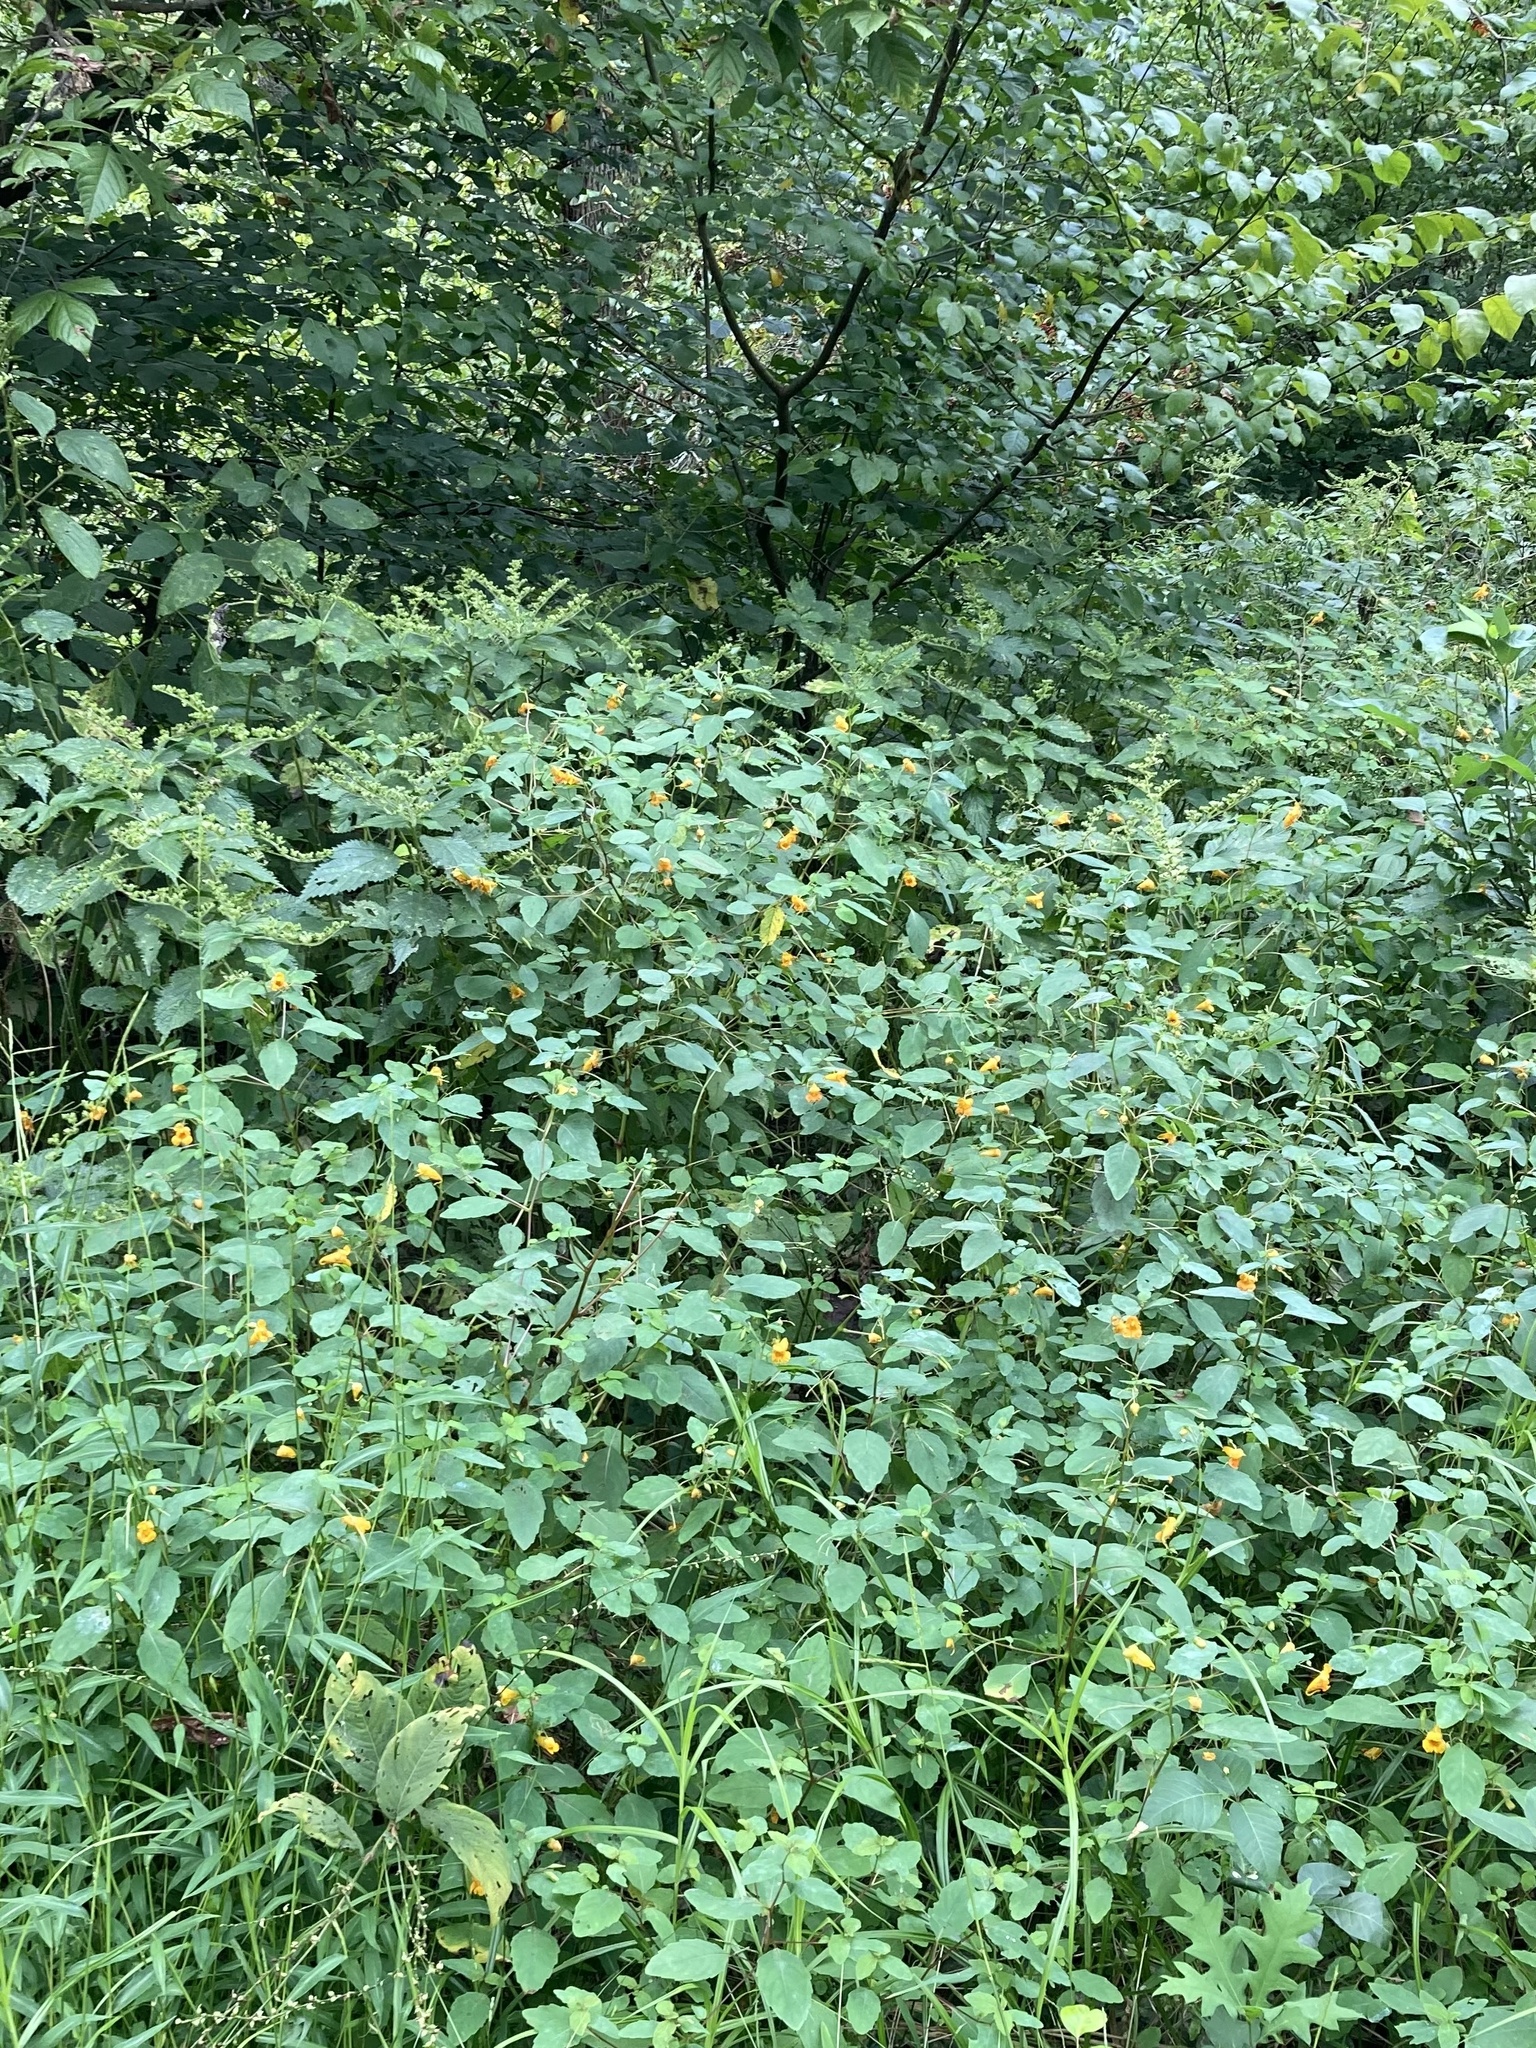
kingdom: Plantae
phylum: Tracheophyta
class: Magnoliopsida
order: Ericales
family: Balsaminaceae
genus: Impatiens
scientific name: Impatiens capensis
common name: Orange balsam
